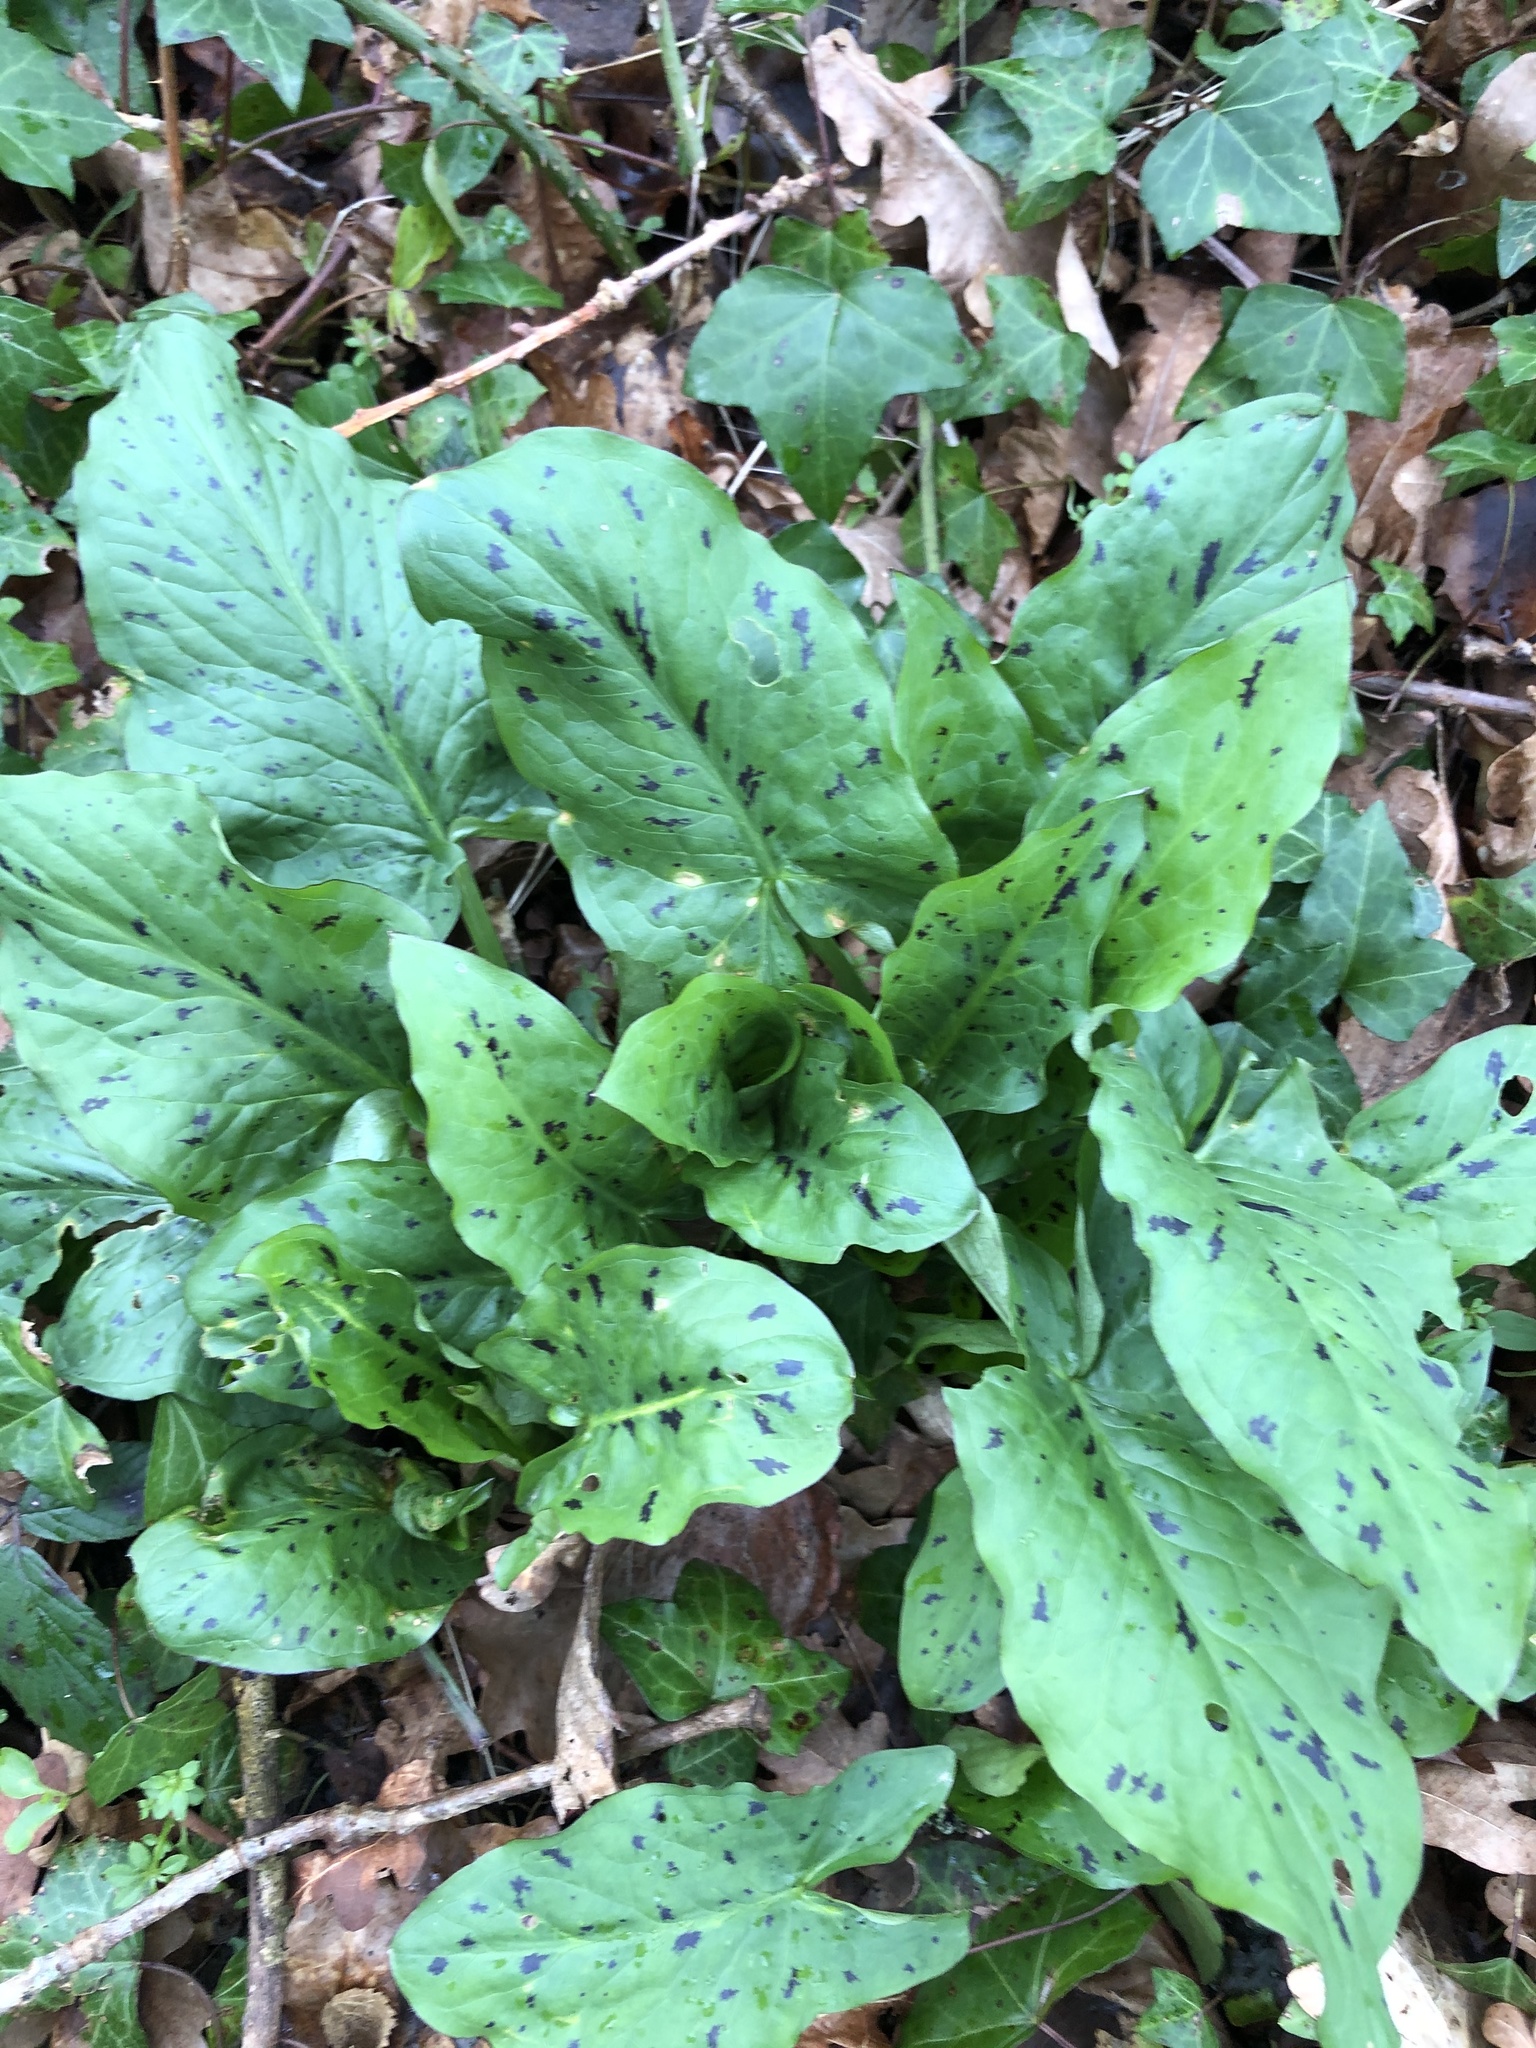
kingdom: Plantae
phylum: Tracheophyta
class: Liliopsida
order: Alismatales
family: Araceae
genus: Arum
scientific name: Arum maculatum
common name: Lords-and-ladies
